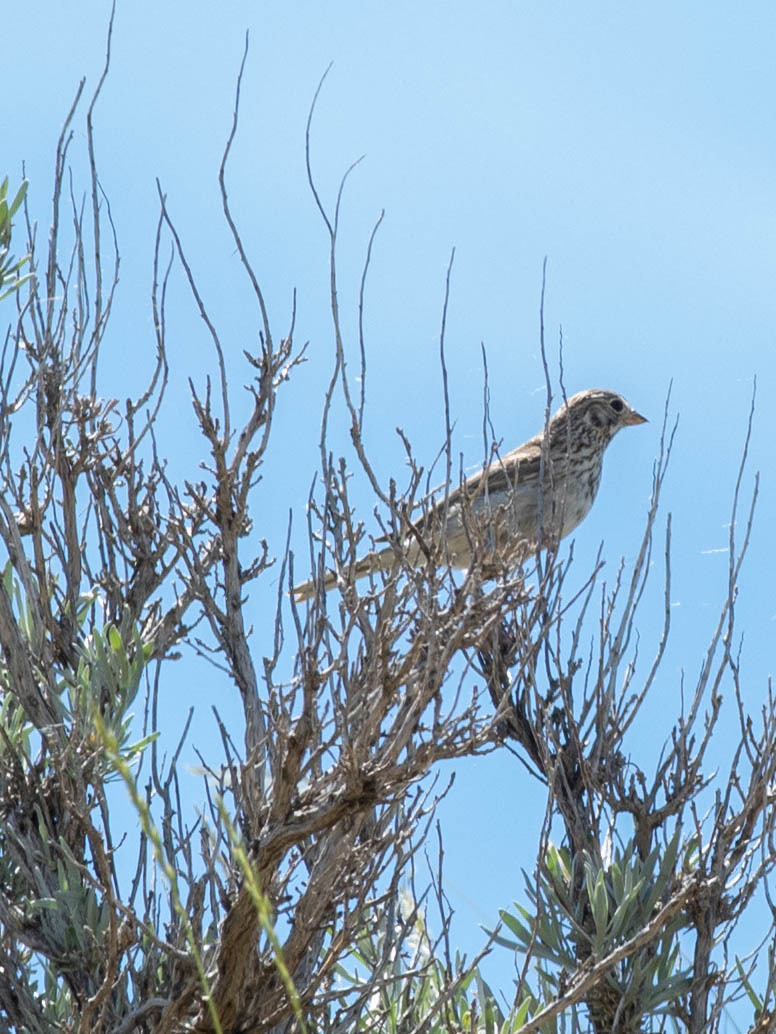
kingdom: Animalia
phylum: Chordata
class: Aves
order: Passeriformes
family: Passerellidae
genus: Pooecetes
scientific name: Pooecetes gramineus
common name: Vesper sparrow
